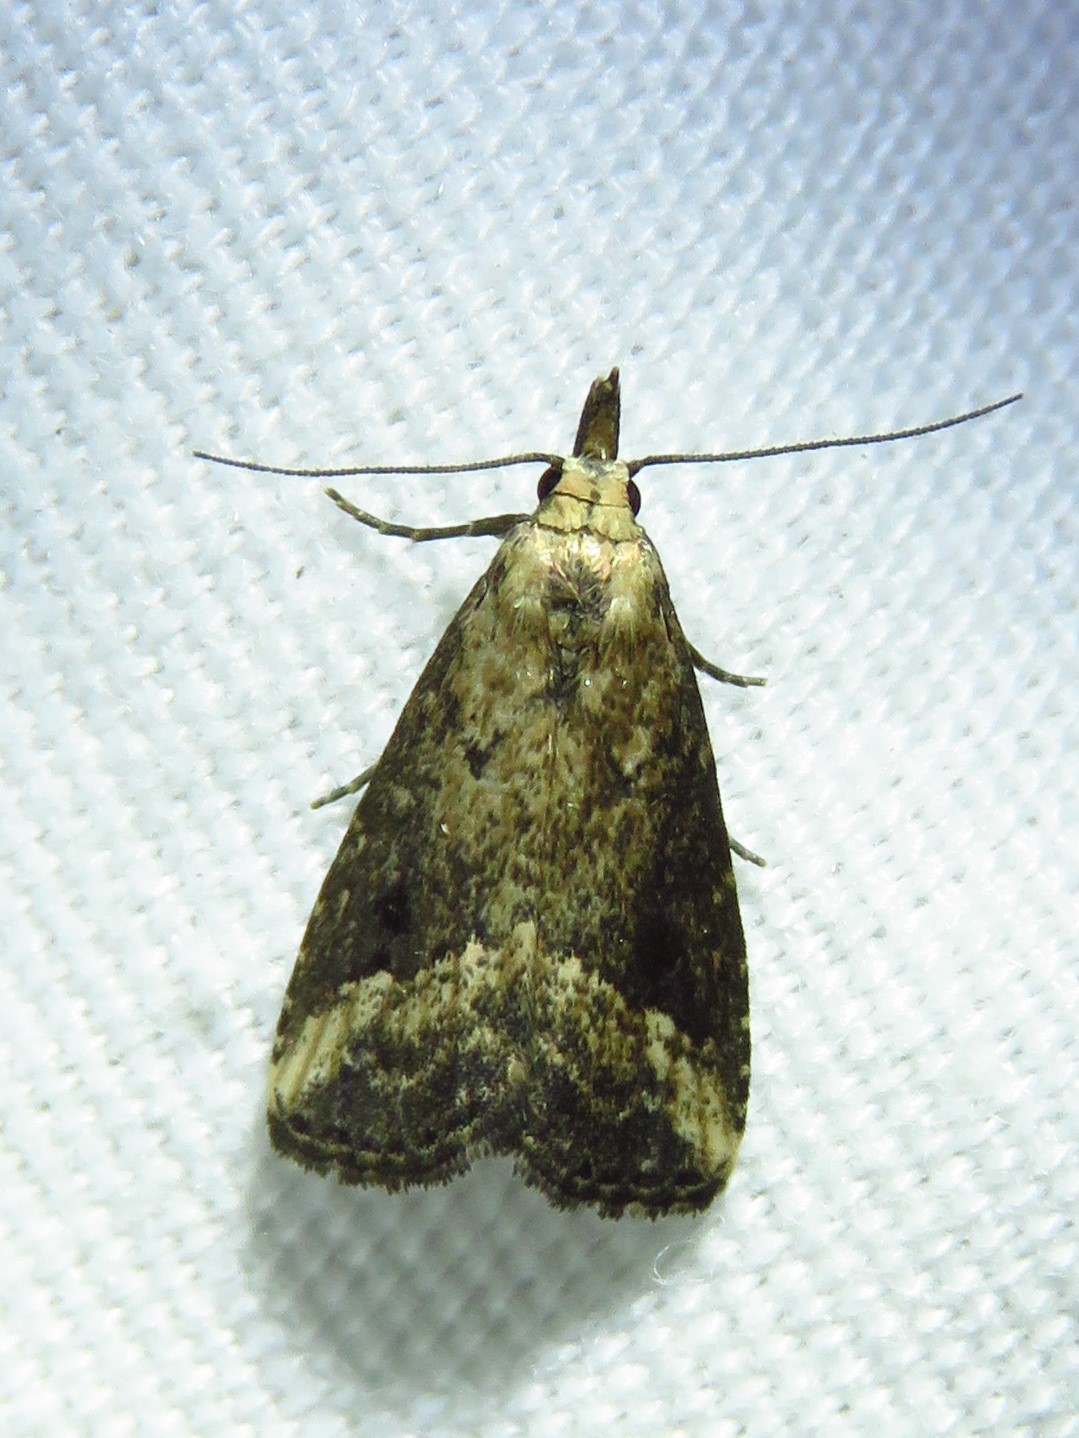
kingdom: Animalia
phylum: Arthropoda
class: Insecta
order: Lepidoptera
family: Erebidae
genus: Schrankia
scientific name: Schrankia
